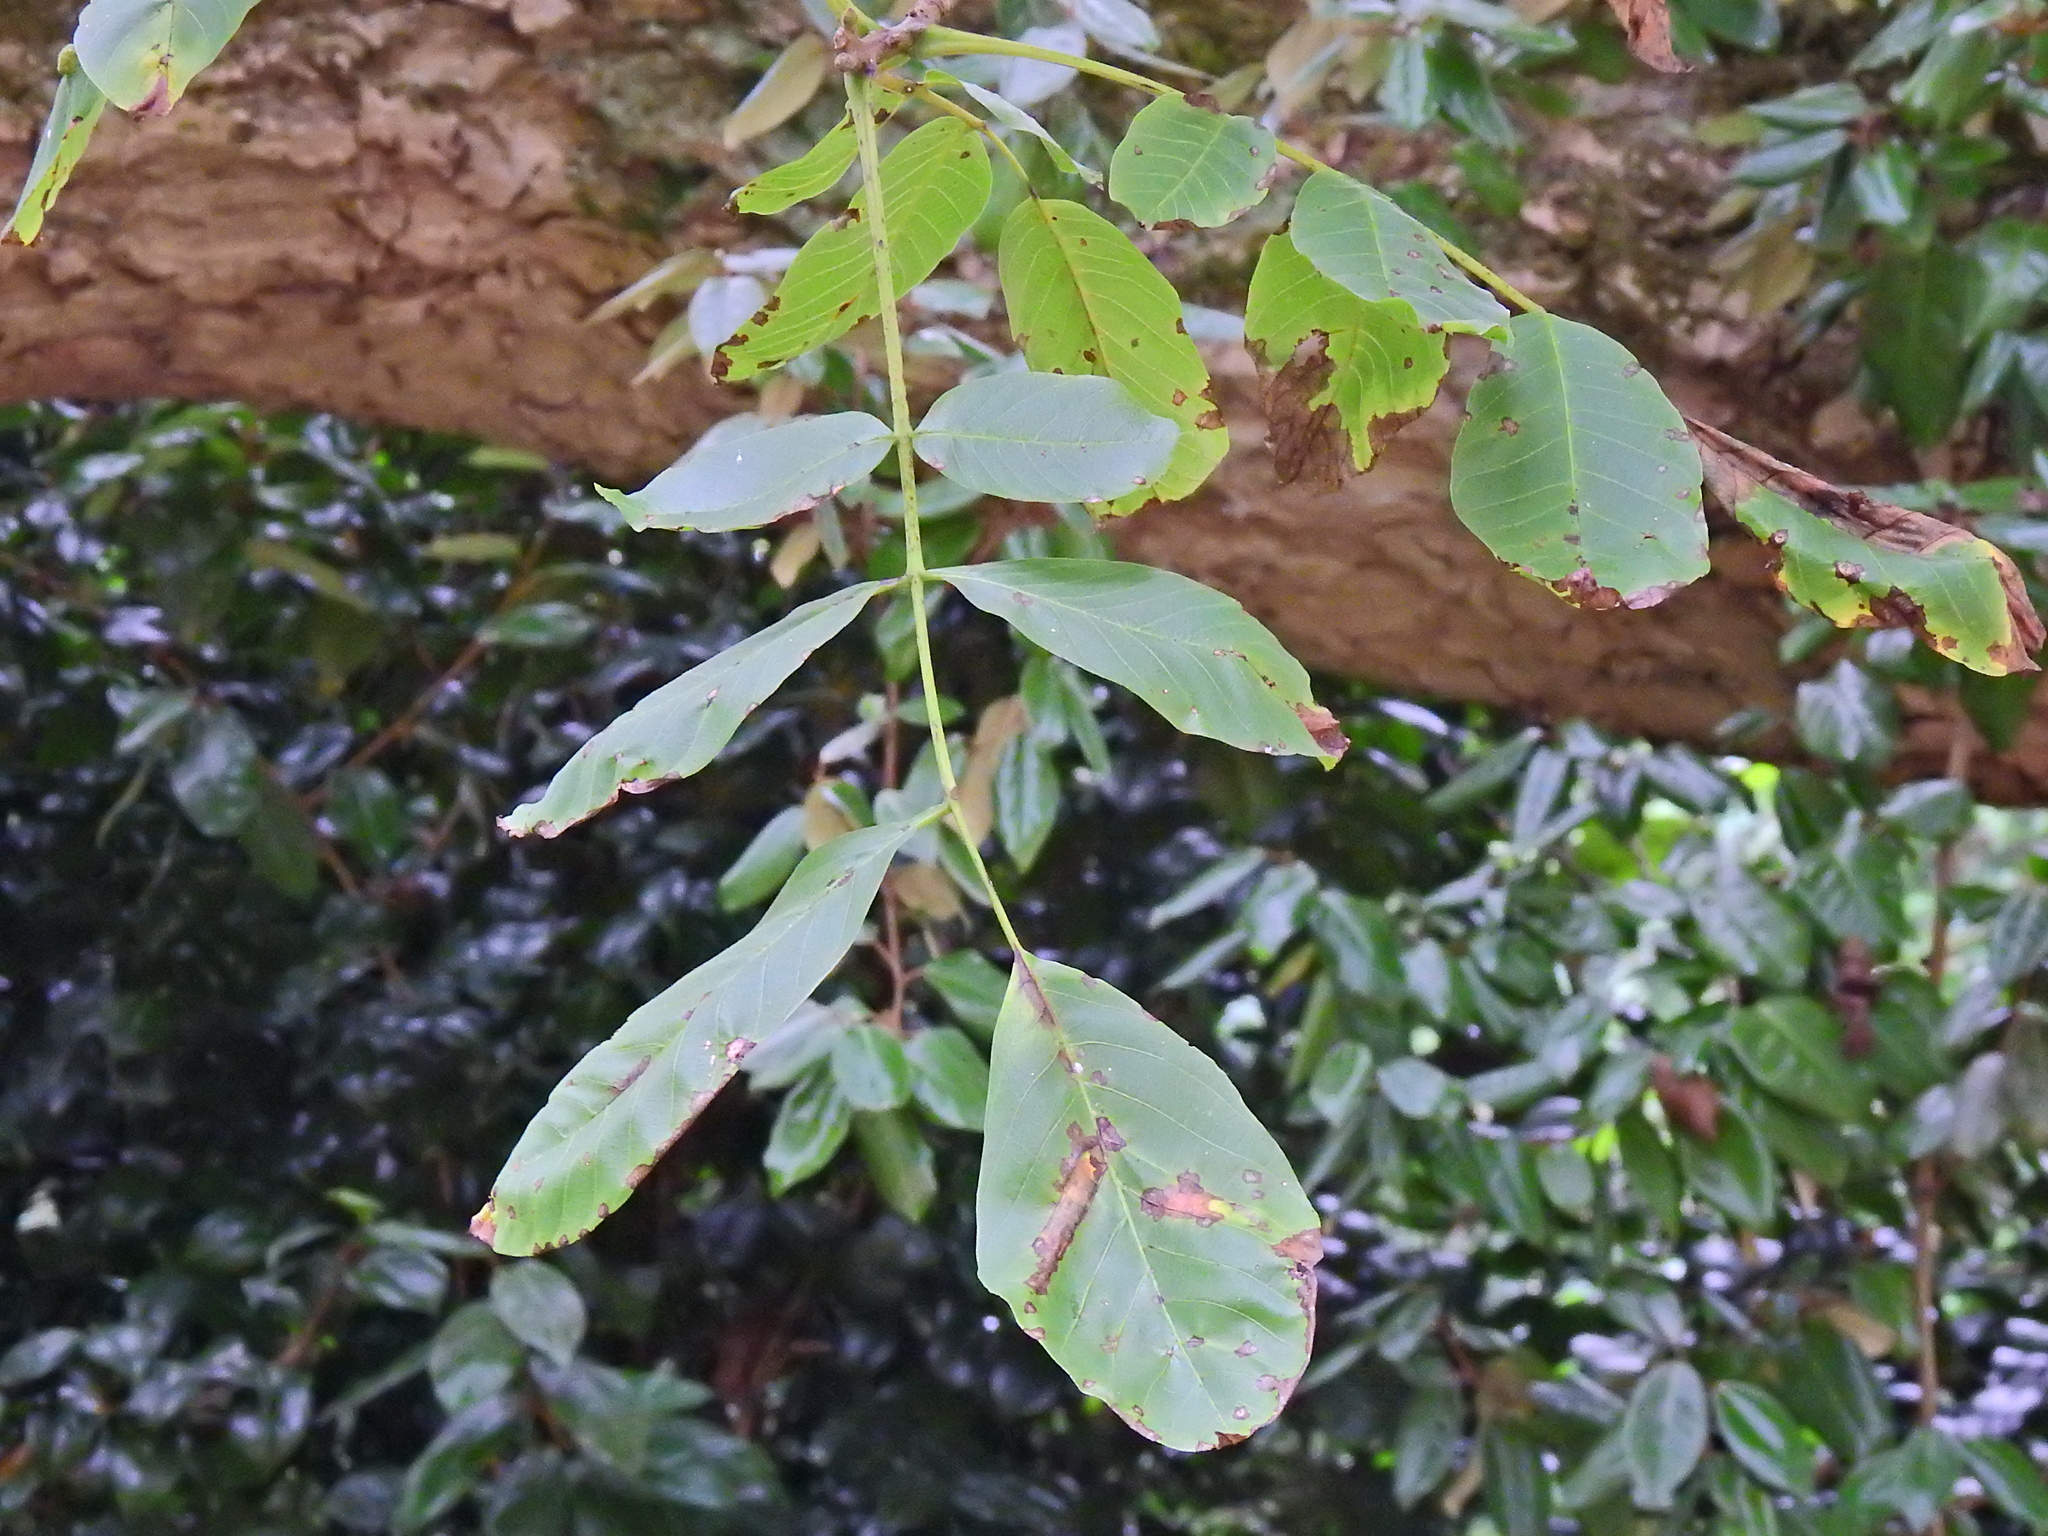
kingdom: Plantae
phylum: Tracheophyta
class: Magnoliopsida
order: Fagales
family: Juglandaceae
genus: Juglans
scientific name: Juglans regia
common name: Walnut
